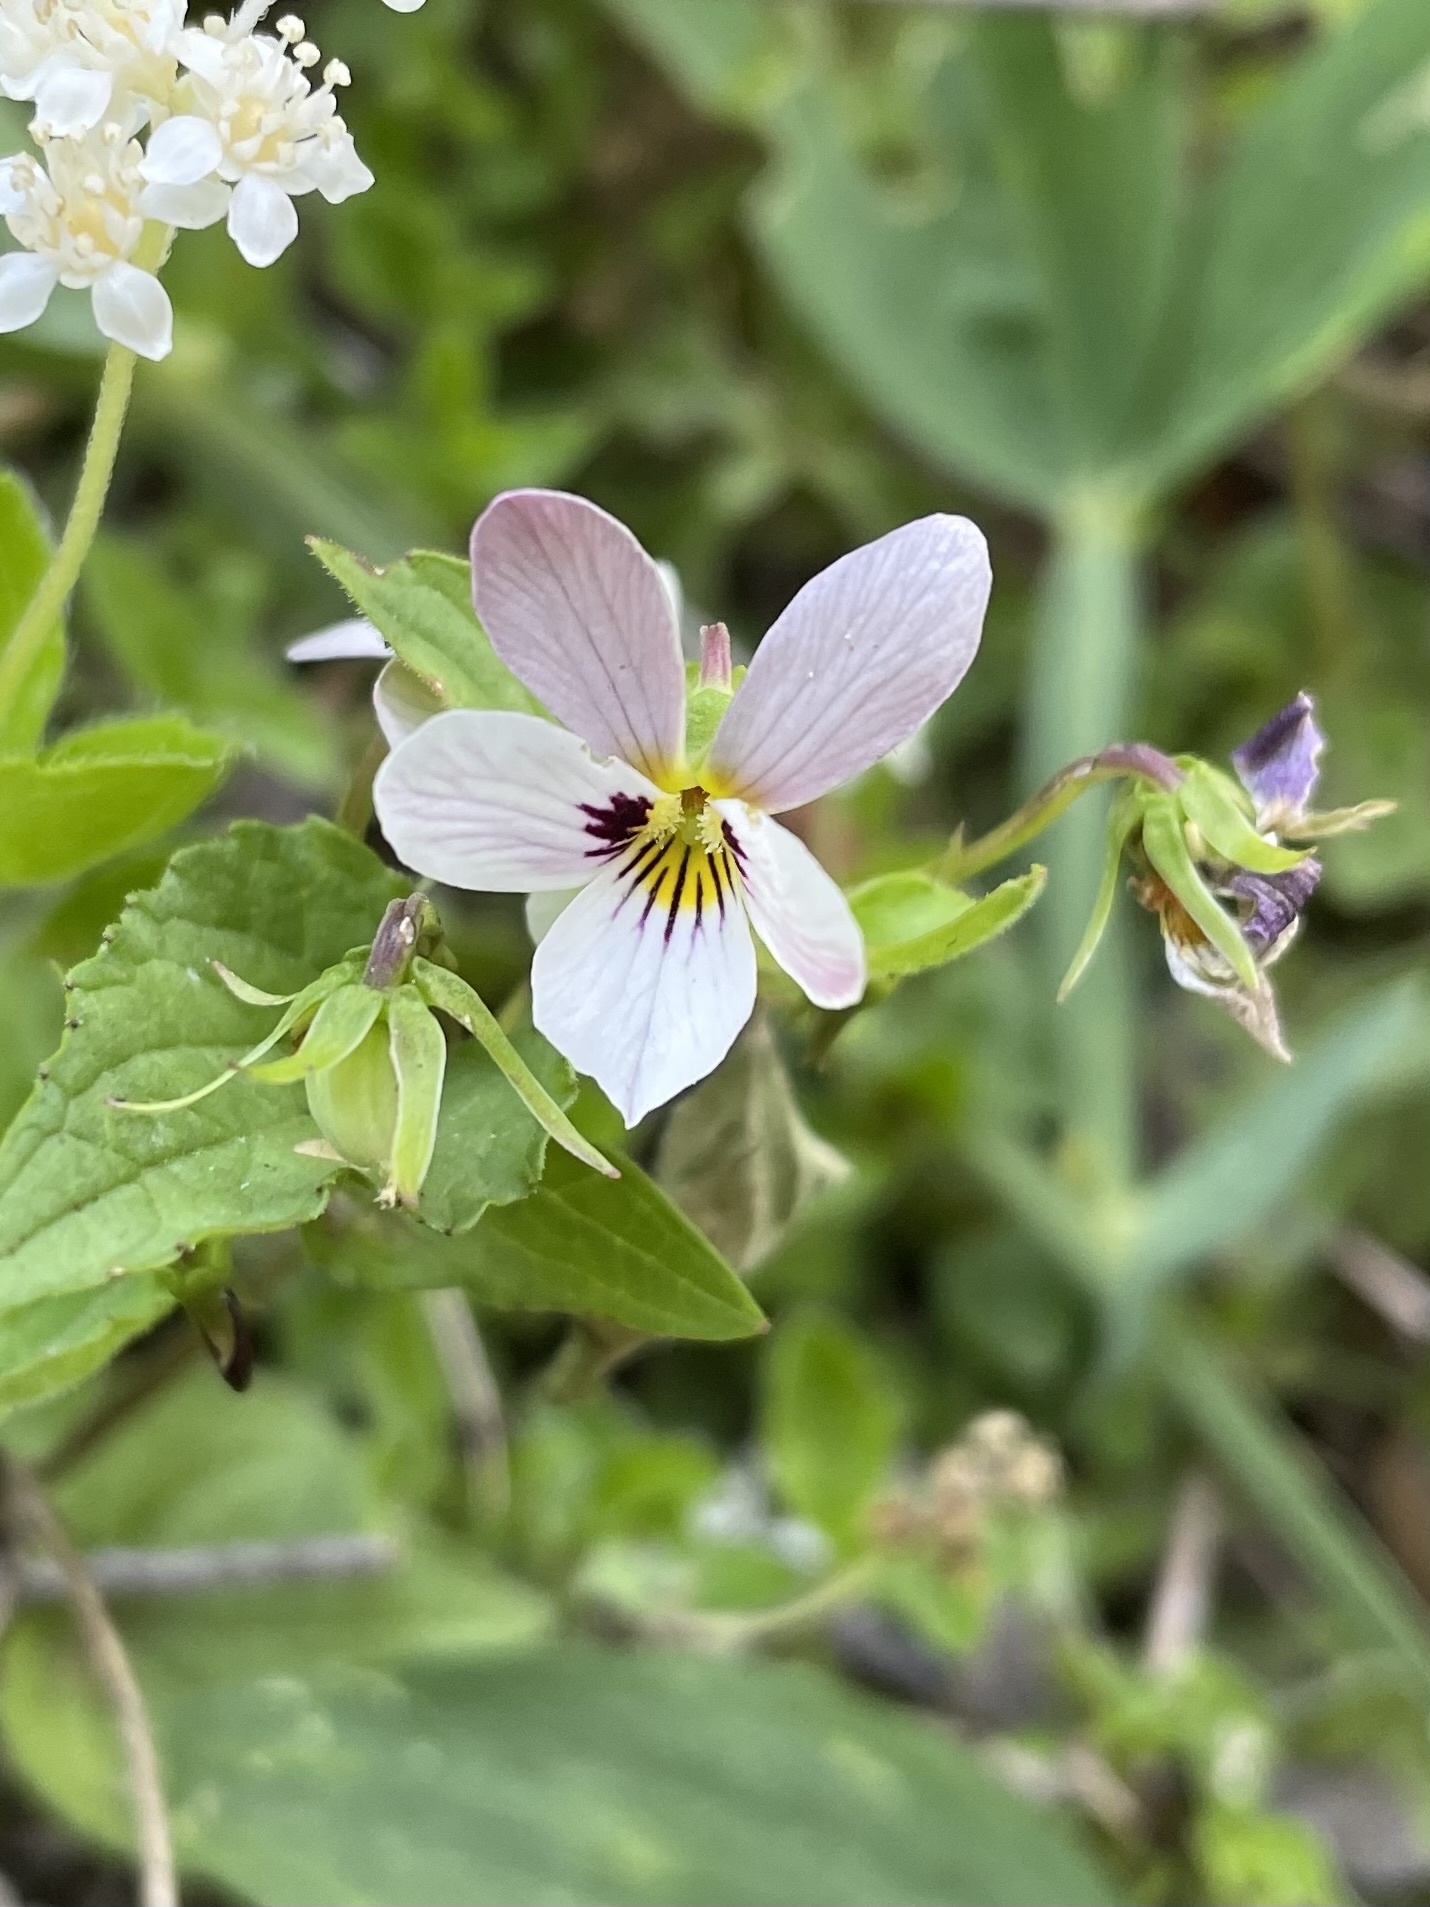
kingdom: Plantae
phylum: Tracheophyta
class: Magnoliopsida
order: Malpighiales
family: Violaceae
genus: Viola
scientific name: Viola ocellata
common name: Western heart's ease
